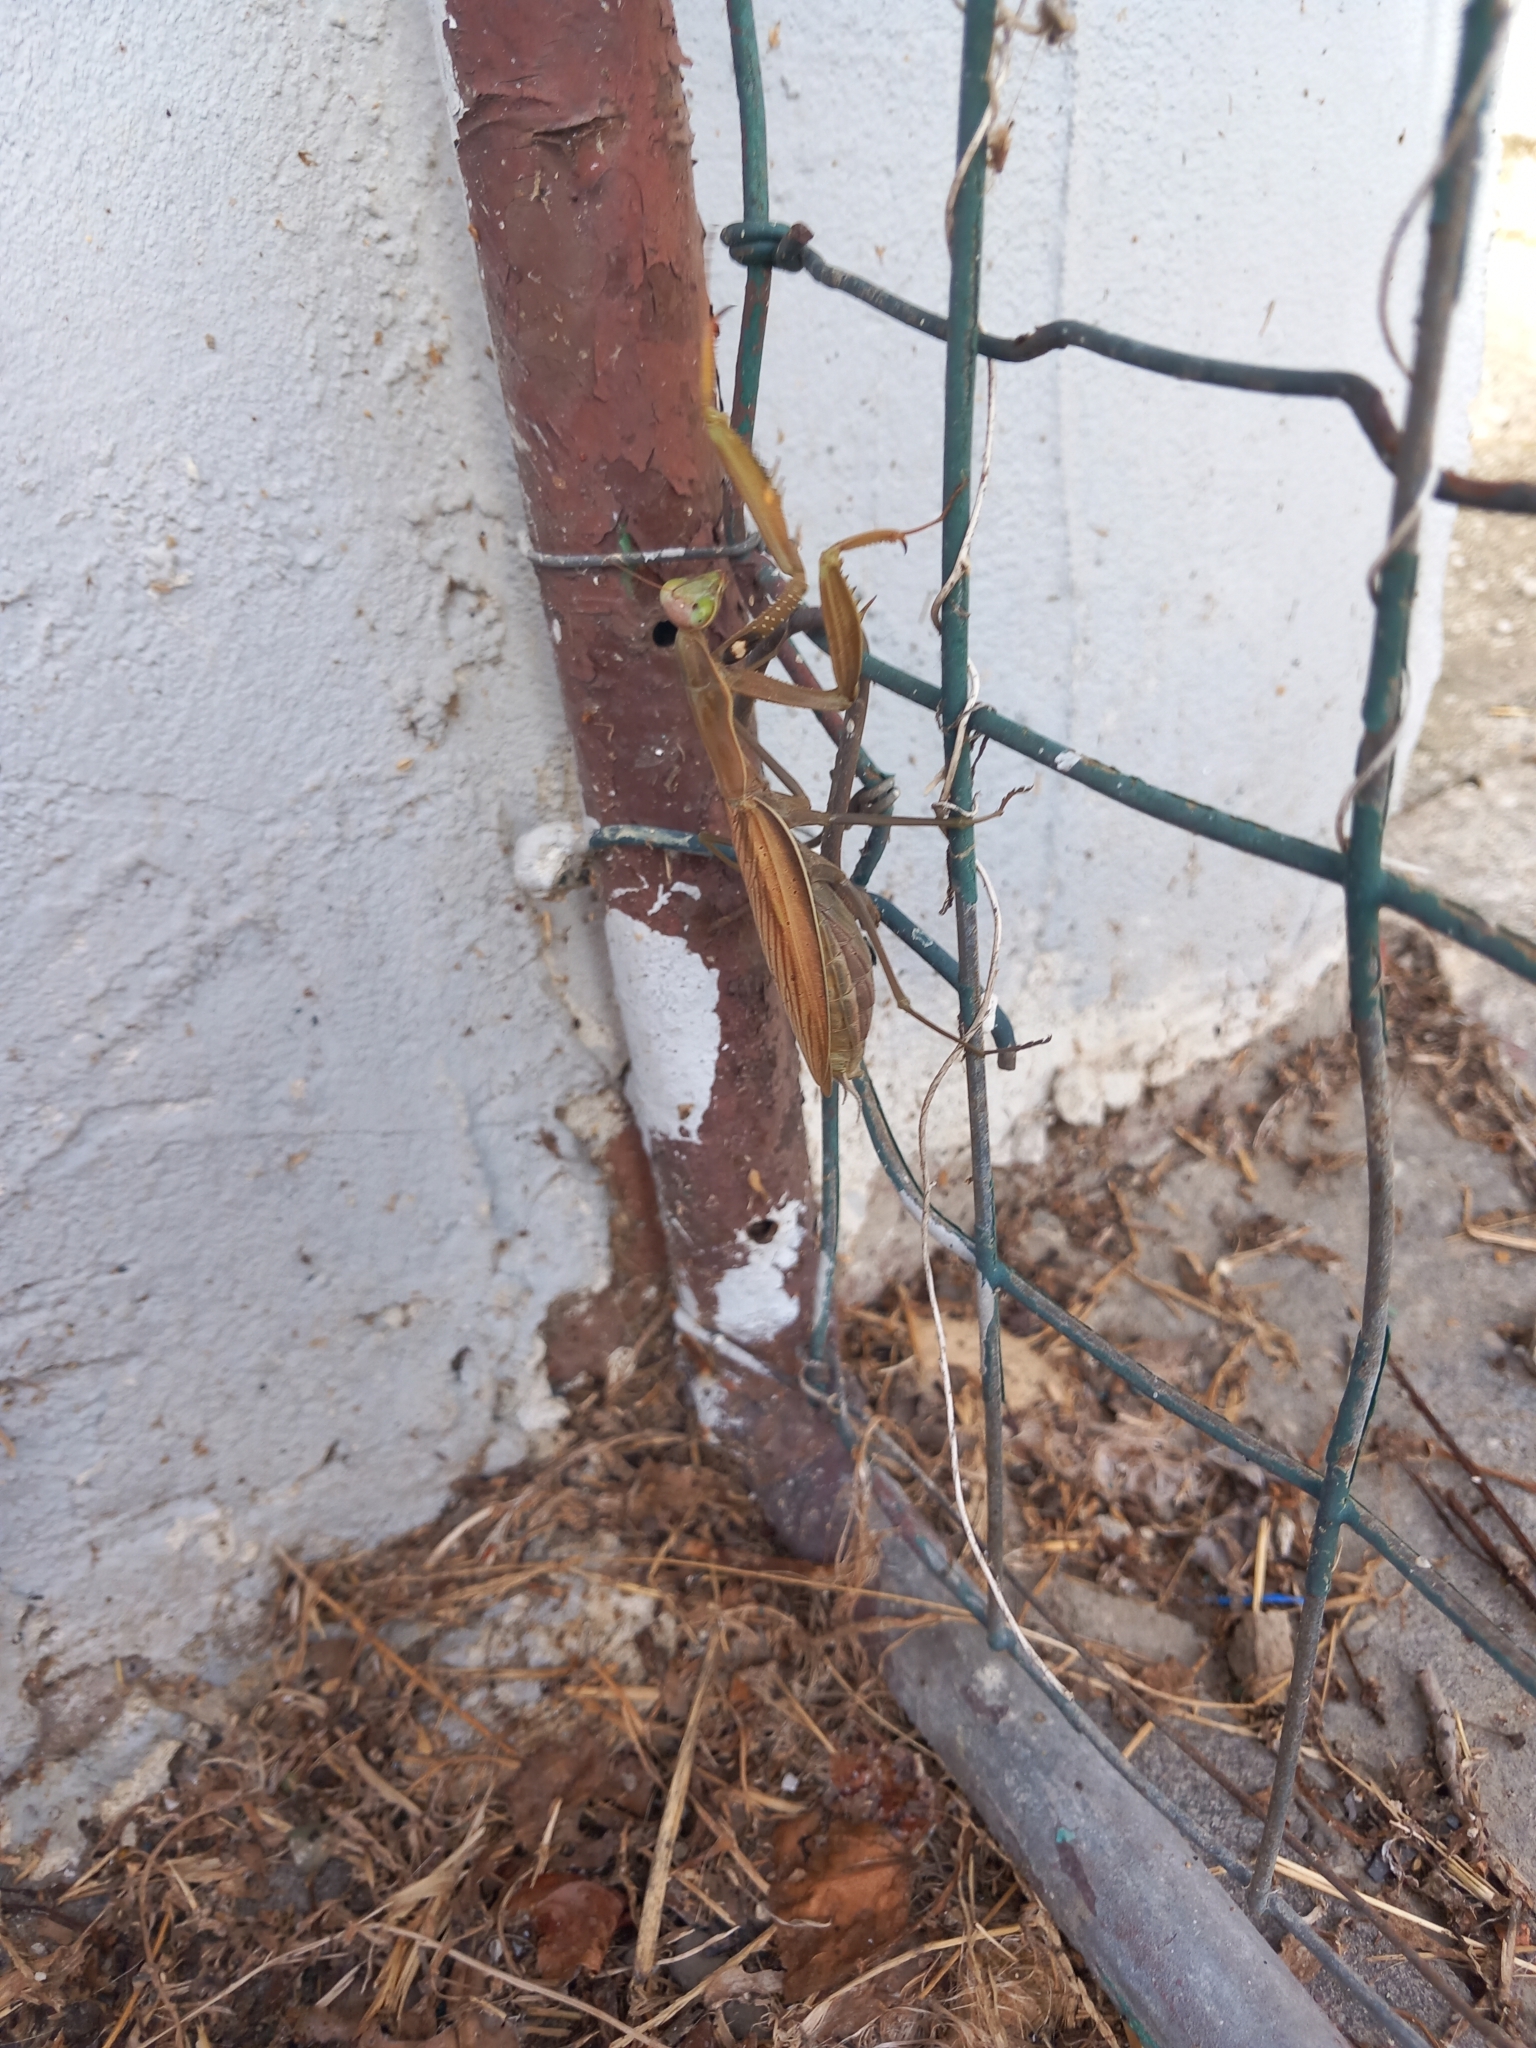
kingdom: Animalia
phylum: Arthropoda
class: Insecta
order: Mantodea
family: Mantidae
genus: Mantis
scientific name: Mantis religiosa
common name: Praying mantis
